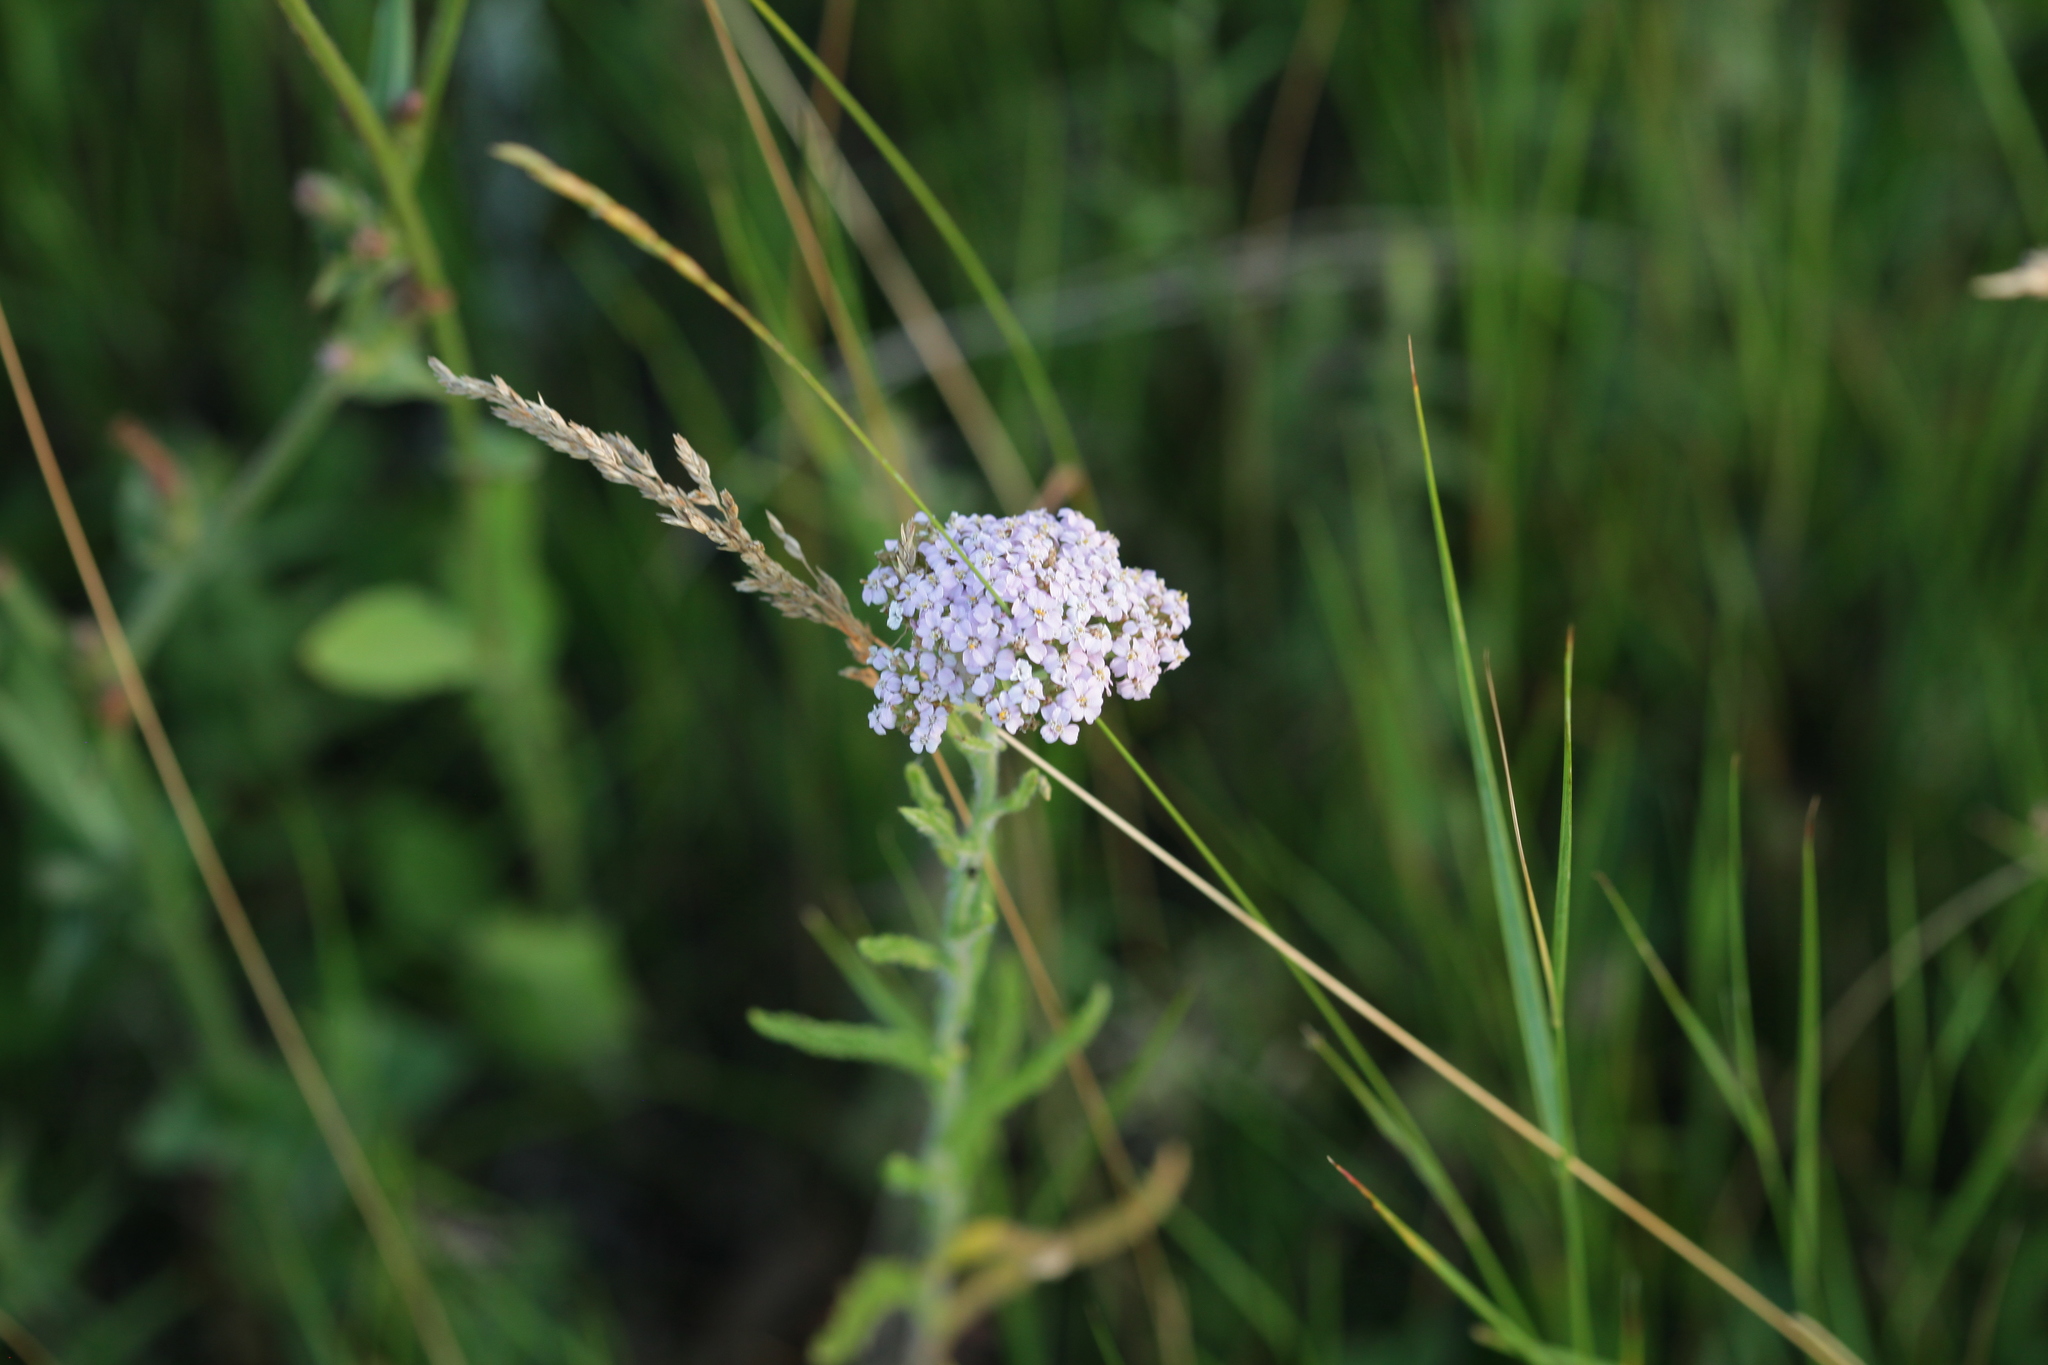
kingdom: Plantae
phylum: Tracheophyta
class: Magnoliopsida
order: Asterales
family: Asteraceae
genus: Achillea
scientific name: Achillea millefolium
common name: Yarrow
